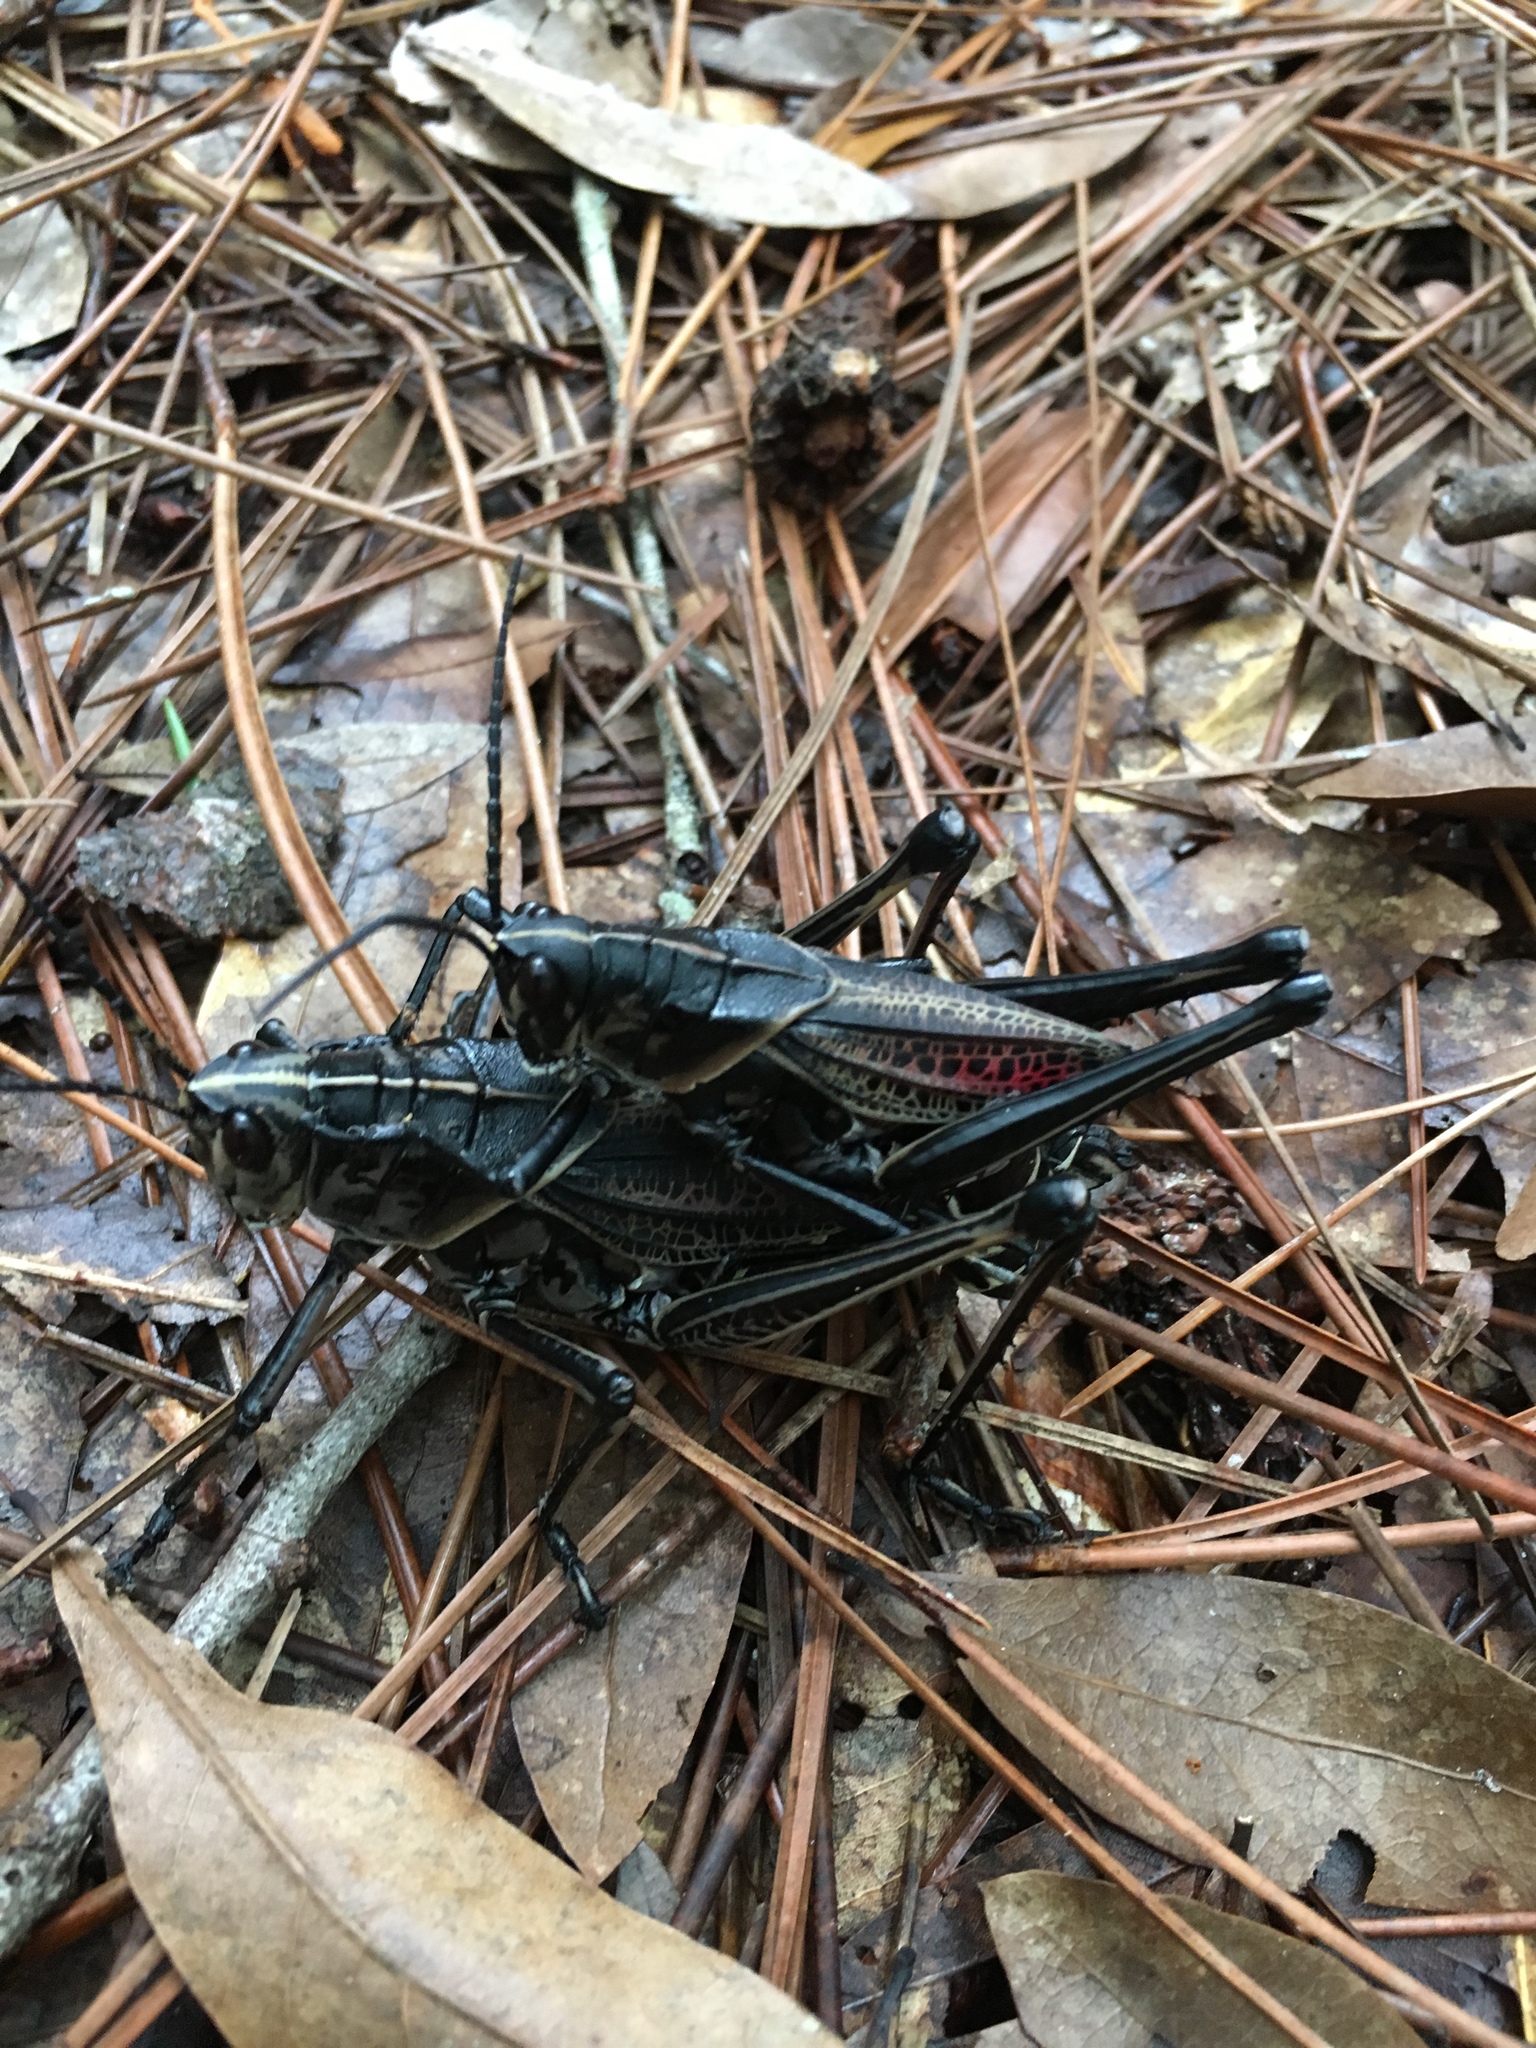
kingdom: Animalia
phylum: Arthropoda
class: Insecta
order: Orthoptera
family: Romaleidae
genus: Romalea
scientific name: Romalea microptera
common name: Eastern lubber grasshopper
